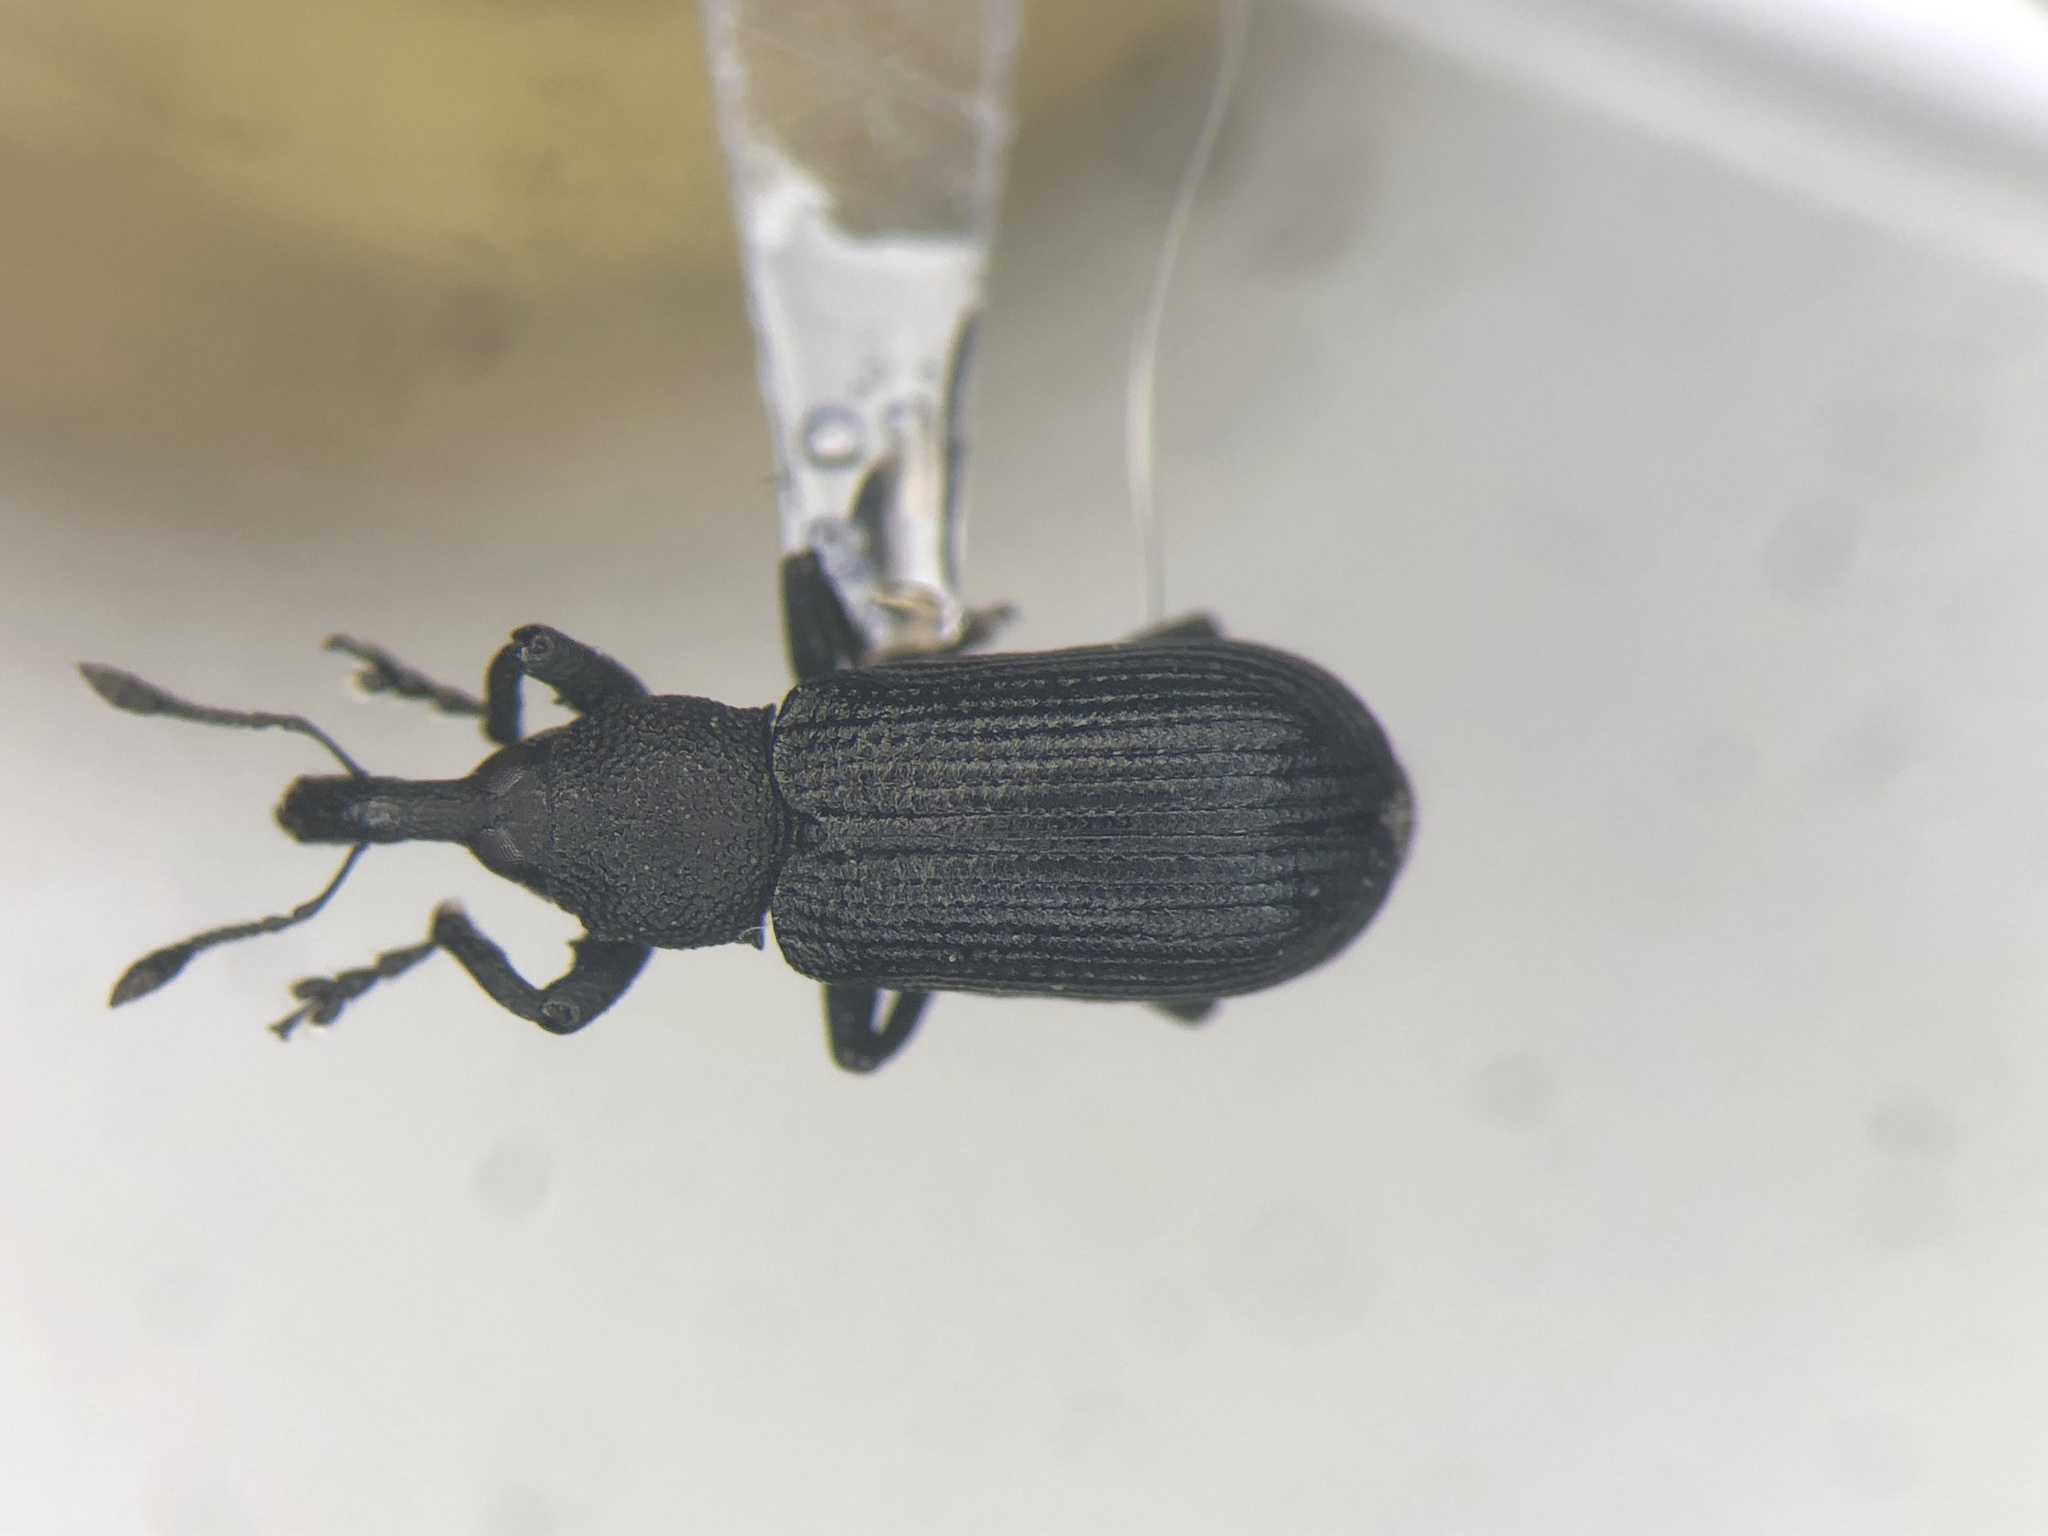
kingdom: Animalia
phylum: Arthropoda
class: Insecta
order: Coleoptera
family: Curculionidae
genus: Magdalis
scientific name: Magdalis pandura
